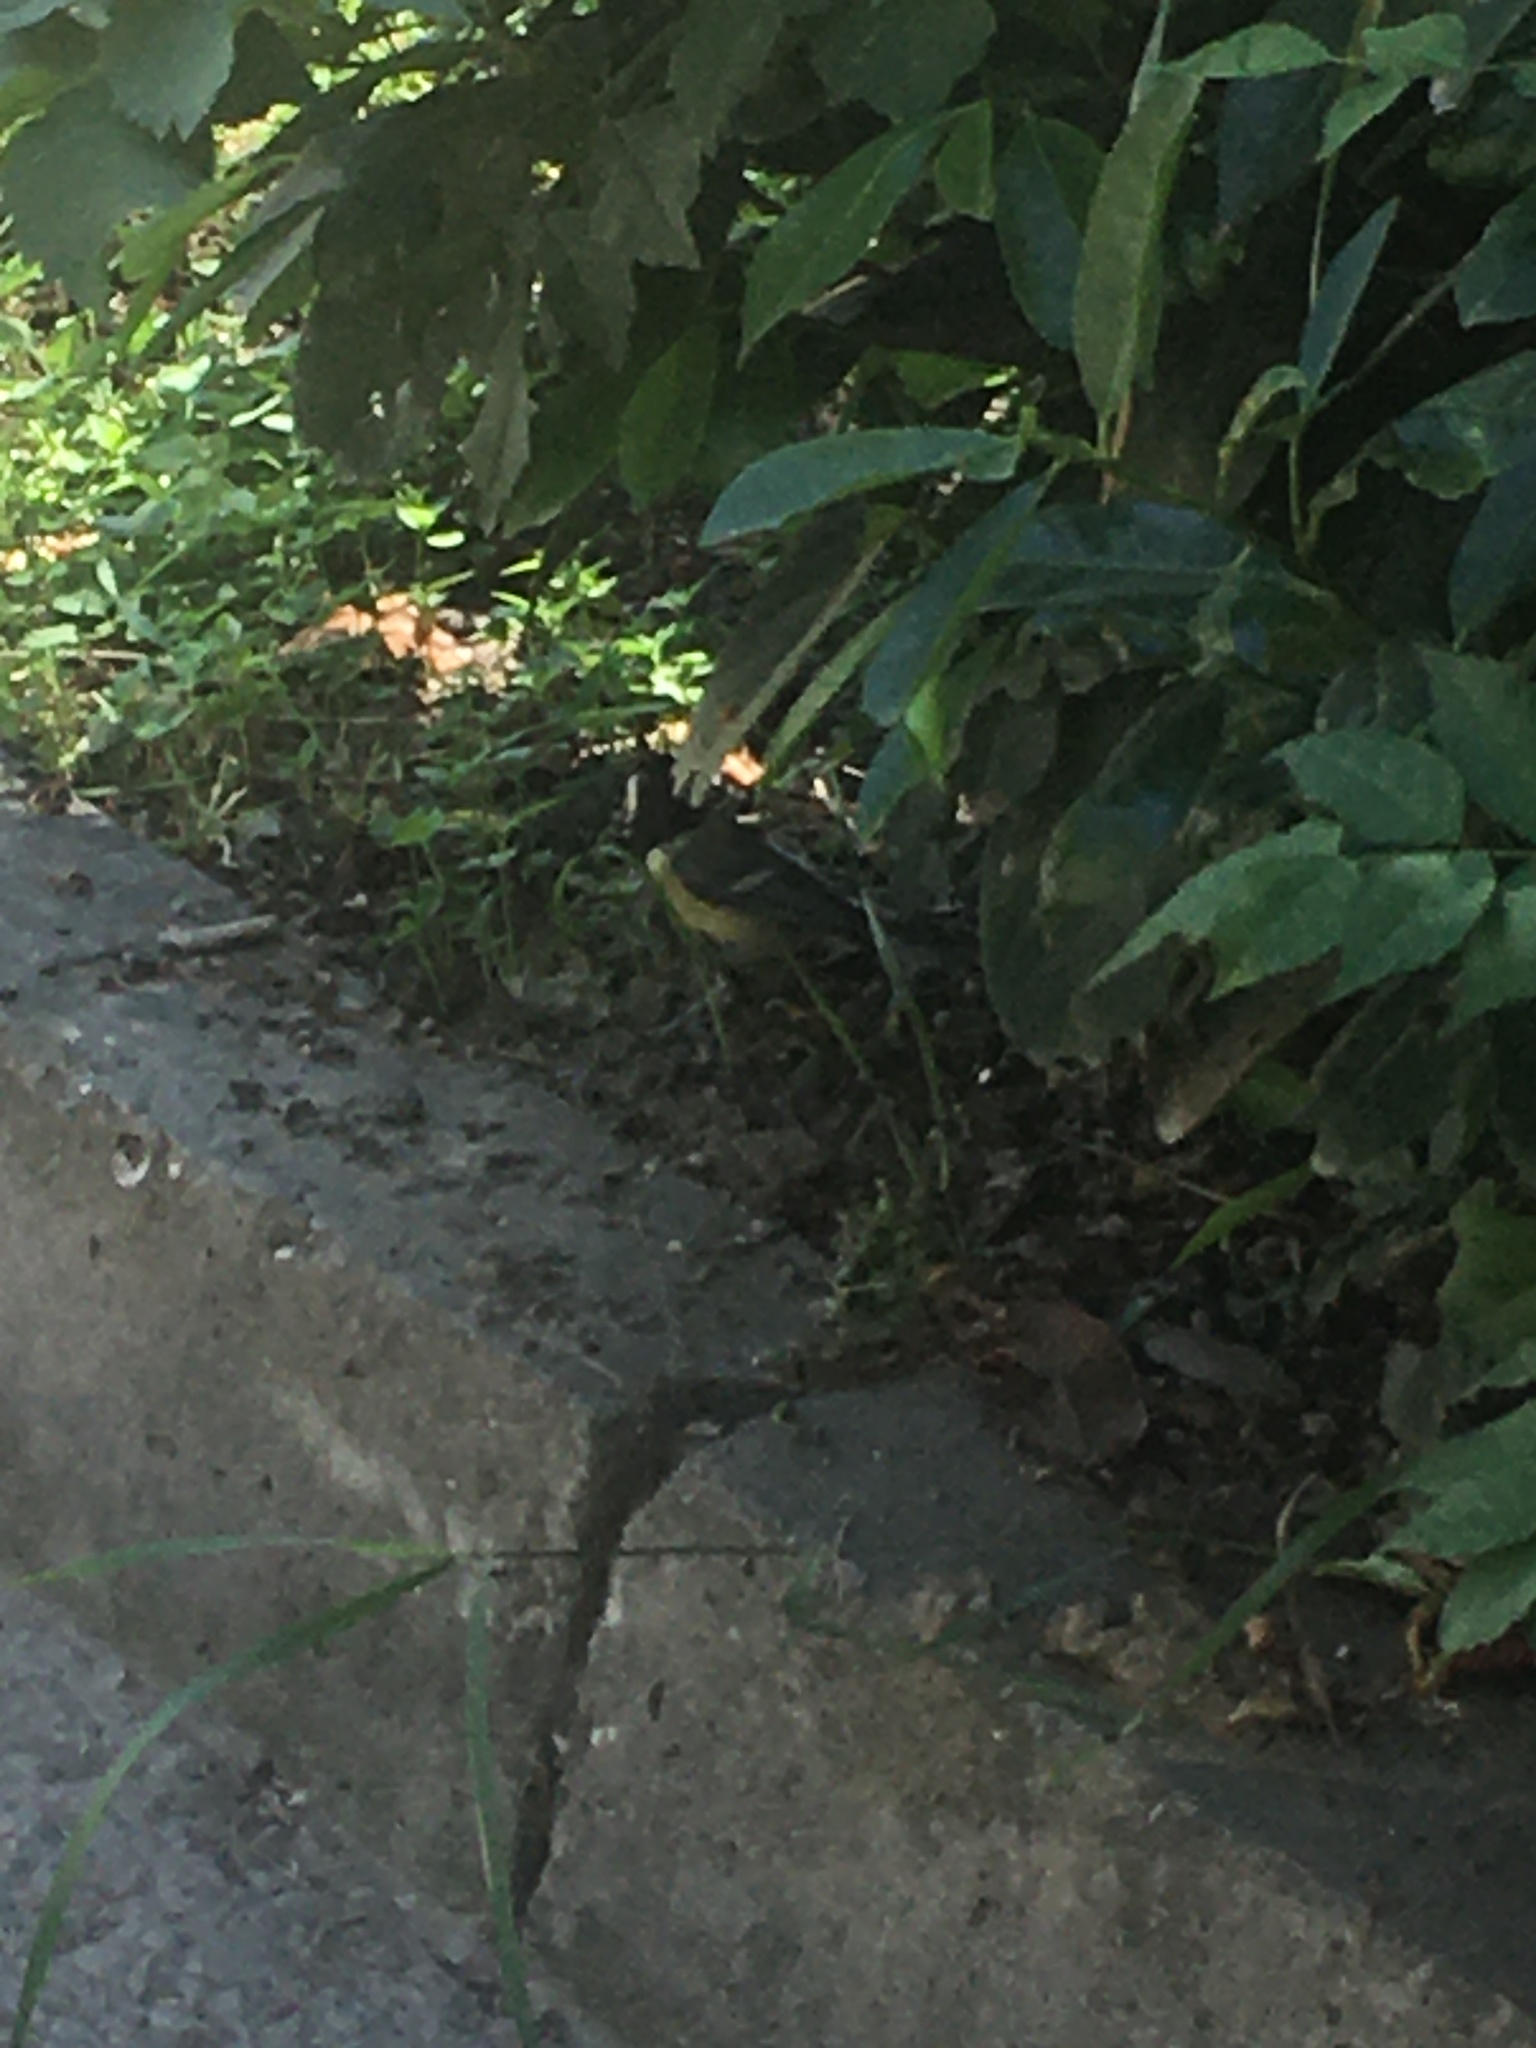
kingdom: Animalia
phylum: Chordata
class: Aves
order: Passeriformes
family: Paridae
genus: Parus
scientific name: Parus major
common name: Great tit
